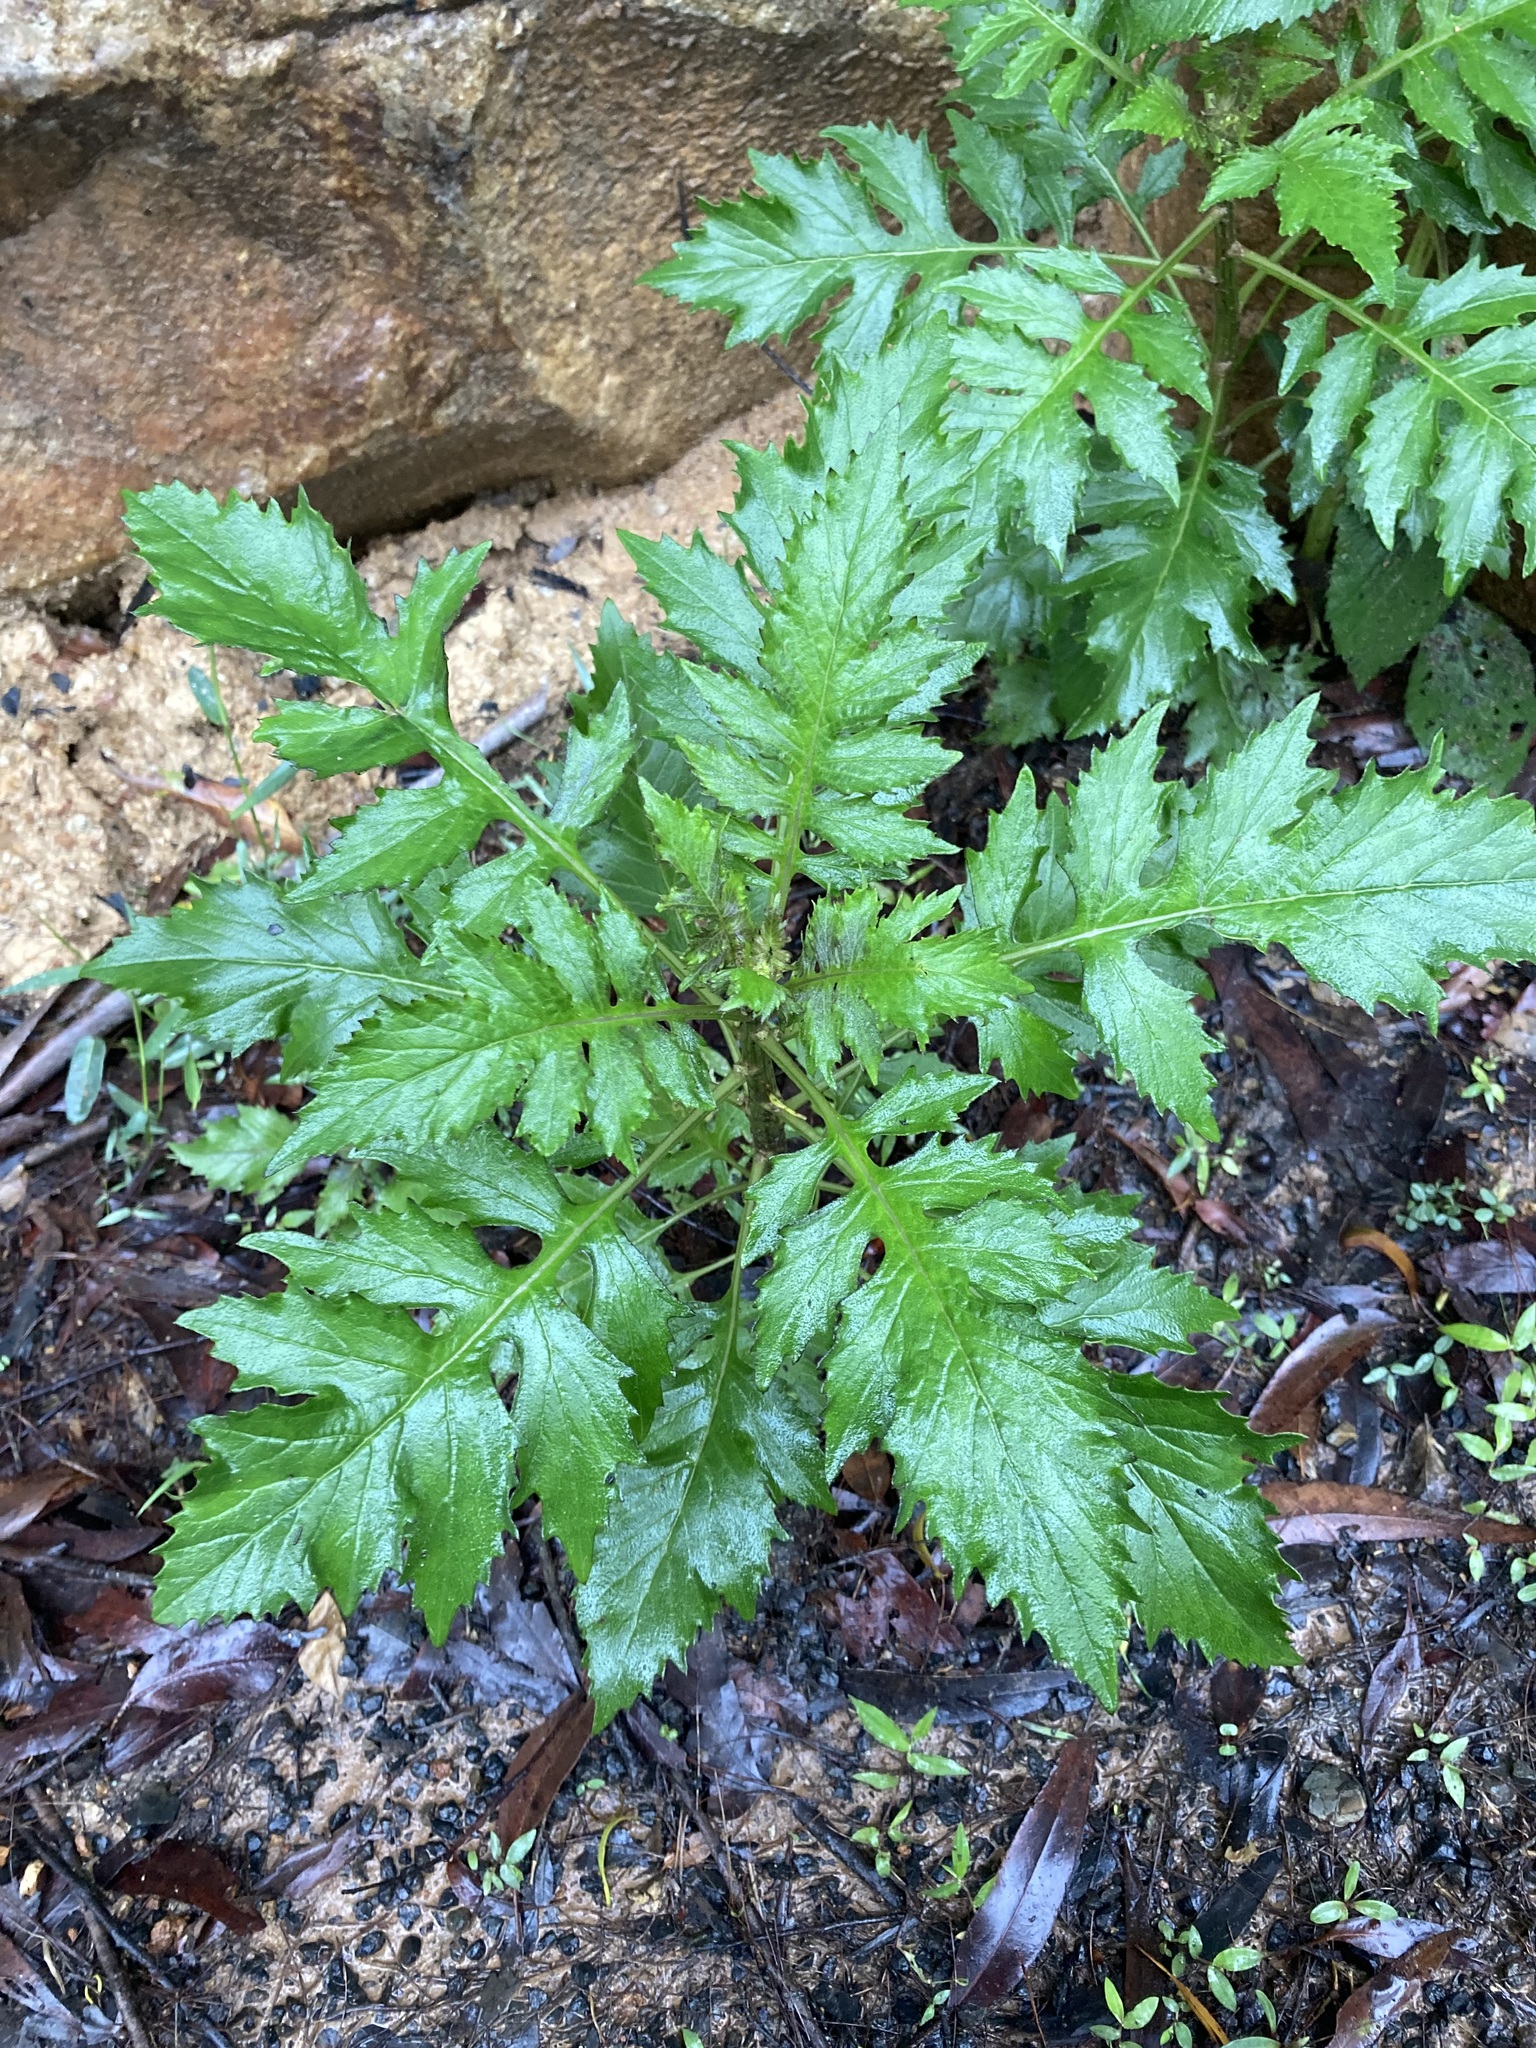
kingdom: Plantae
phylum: Tracheophyta
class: Magnoliopsida
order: Asterales
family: Asteraceae
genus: Erechtites
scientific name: Erechtites valerianifolius
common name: Tropical burnweed
